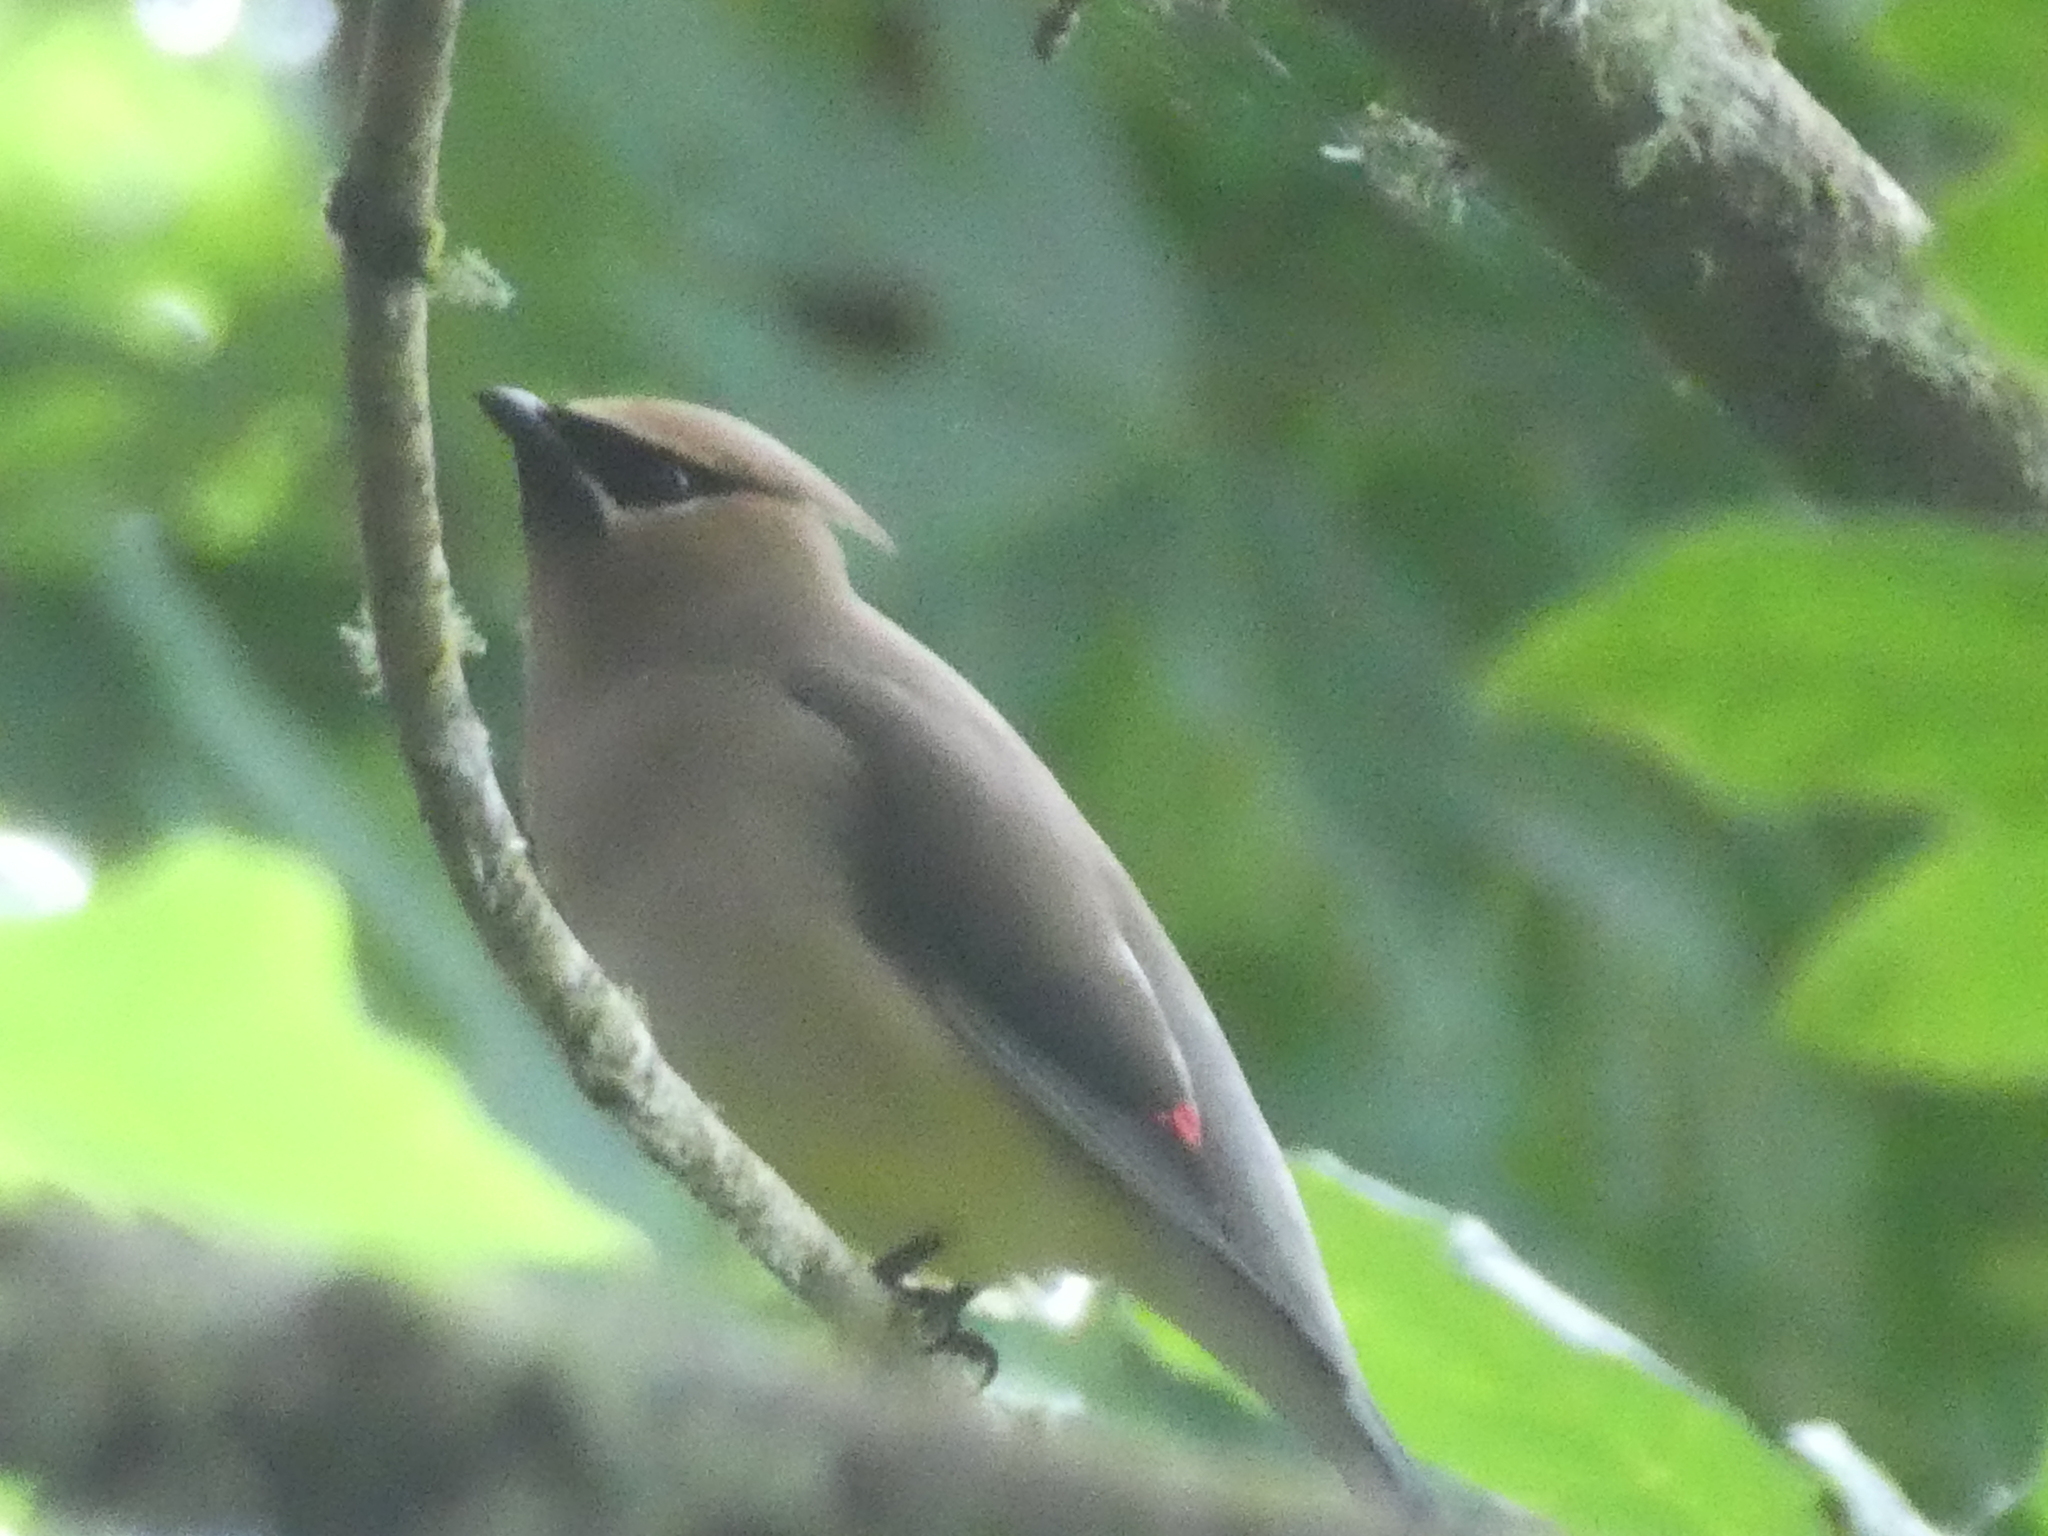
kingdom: Animalia
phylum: Chordata
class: Aves
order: Passeriformes
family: Bombycillidae
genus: Bombycilla
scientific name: Bombycilla cedrorum
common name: Cedar waxwing
